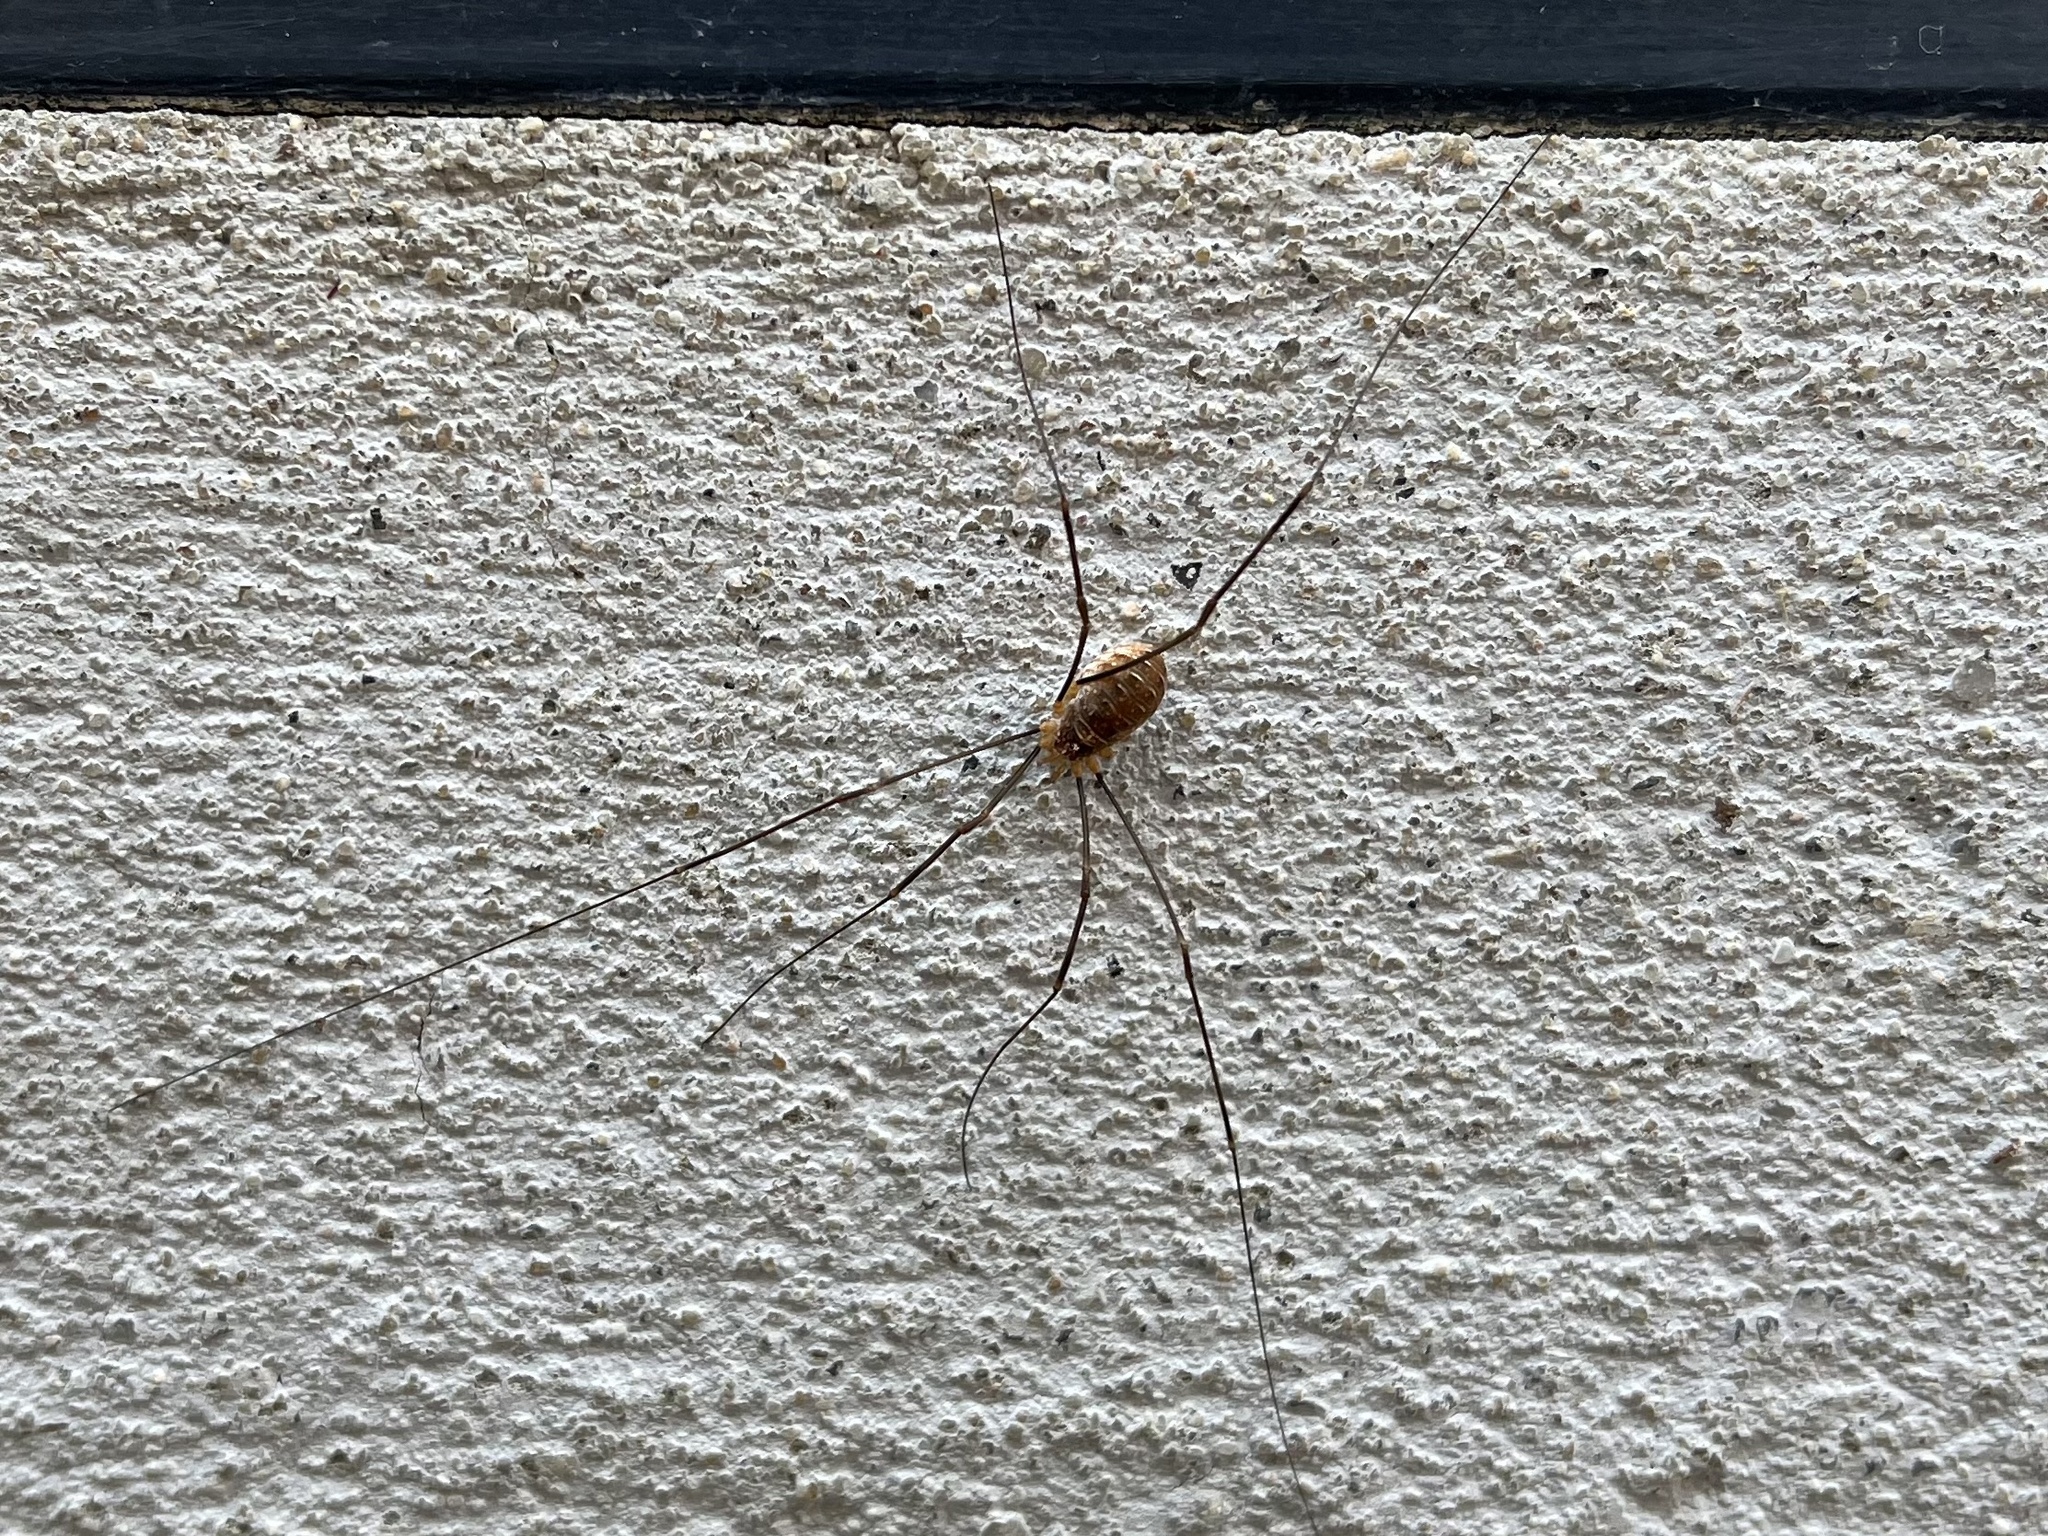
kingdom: Animalia
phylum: Arthropoda
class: Arachnida
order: Opiliones
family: Phalangiidae
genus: Opilio
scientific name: Opilio canestrinii
